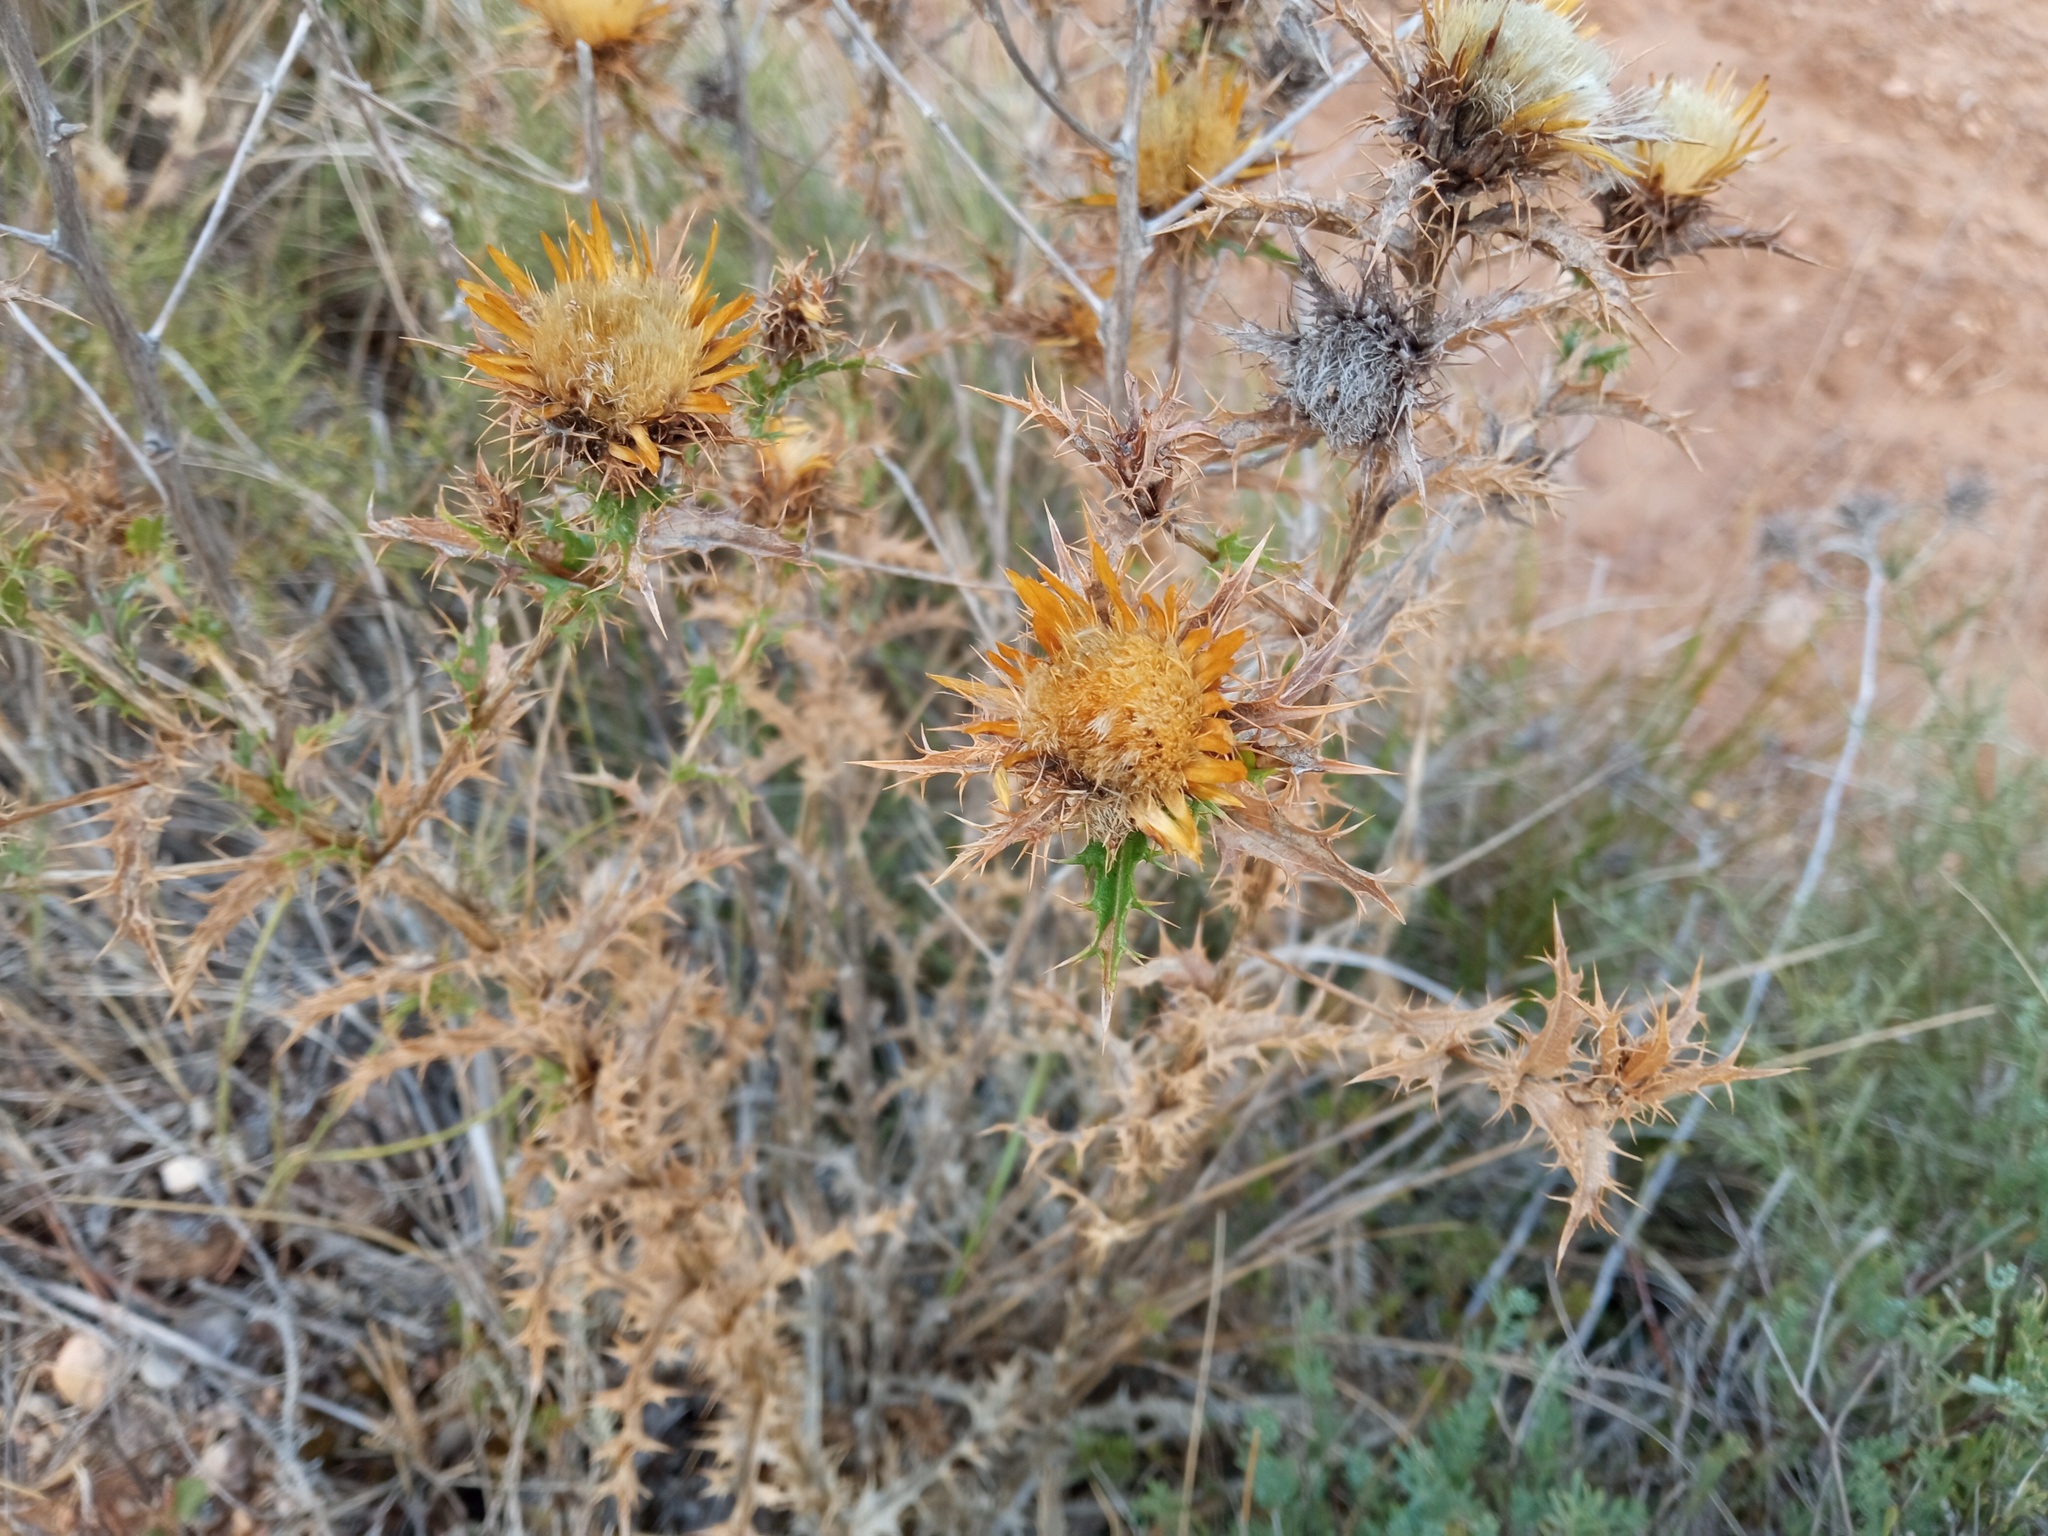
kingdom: Plantae
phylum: Tracheophyta
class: Magnoliopsida
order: Asterales
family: Asteraceae
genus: Carlina
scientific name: Carlina hispanica
